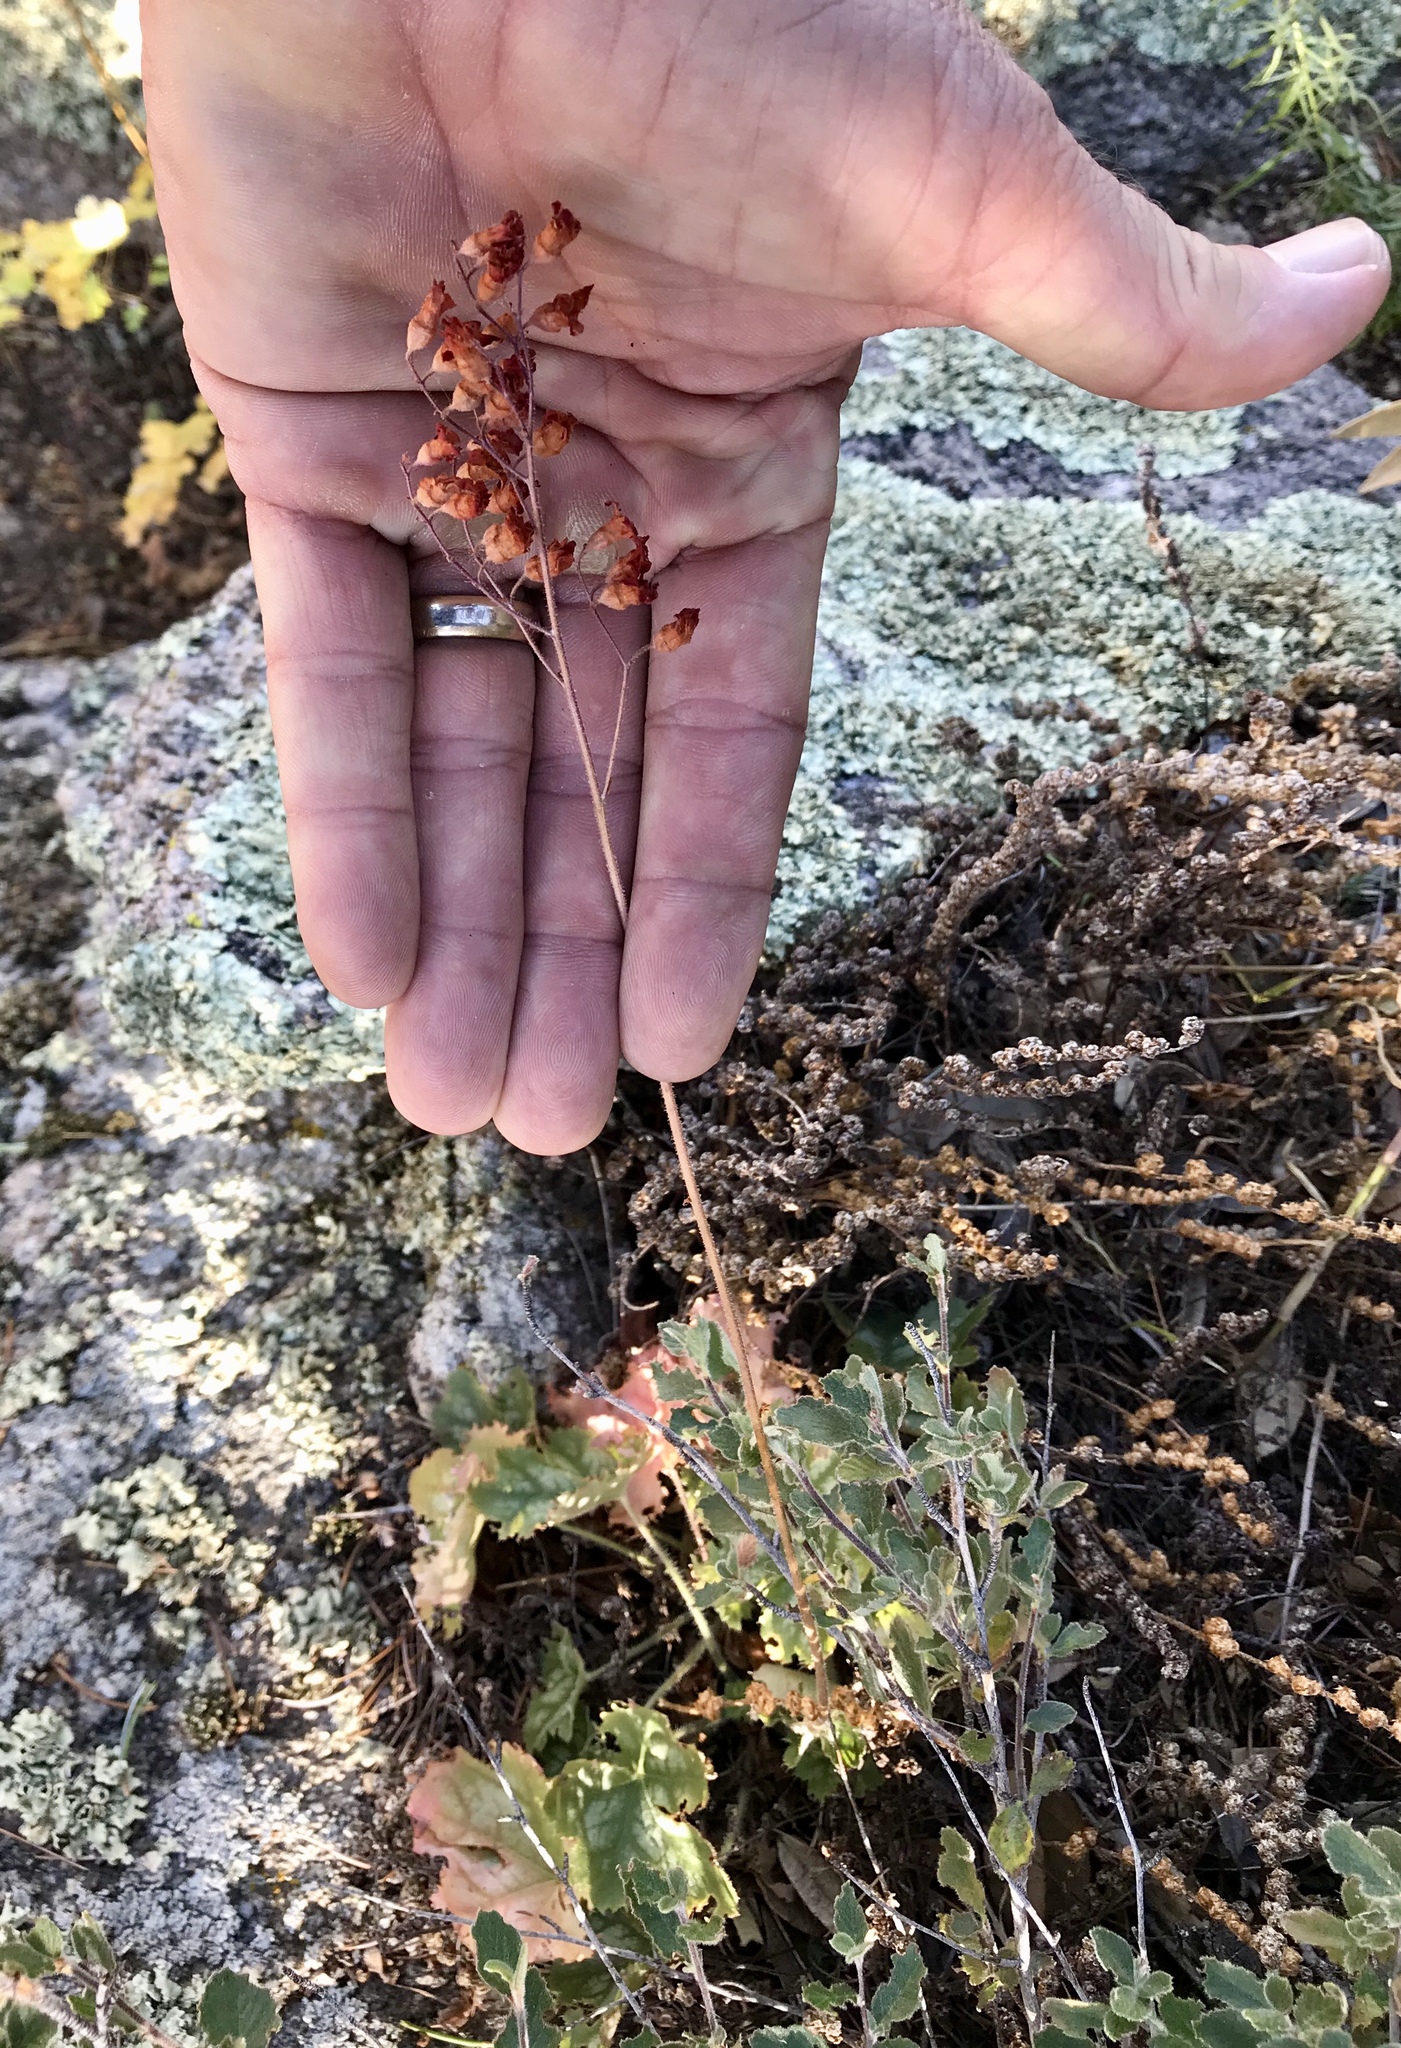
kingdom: Plantae
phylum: Tracheophyta
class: Magnoliopsida
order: Saxifragales
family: Saxifragaceae
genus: Heuchera
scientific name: Heuchera sanguinea
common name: Coralbells
